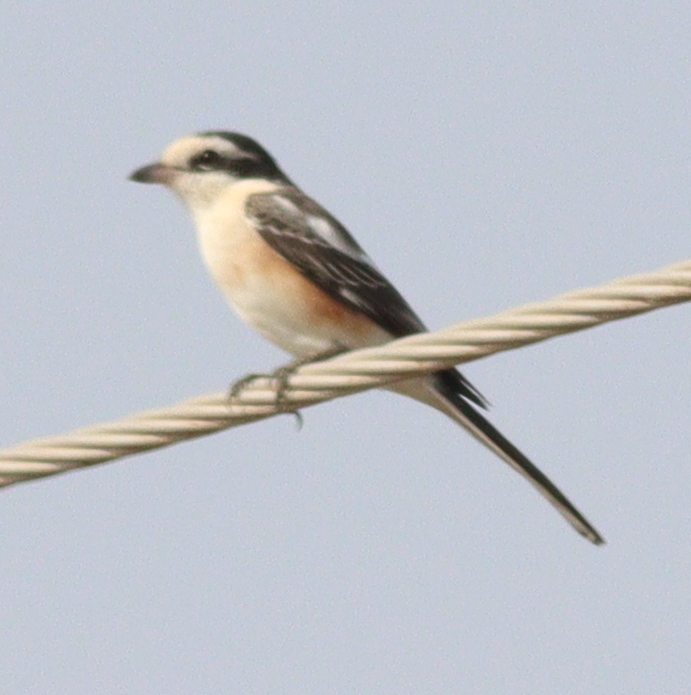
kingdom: Animalia
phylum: Chordata
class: Aves
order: Passeriformes
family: Laniidae
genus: Lanius
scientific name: Lanius nubicus
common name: Masked shrike
